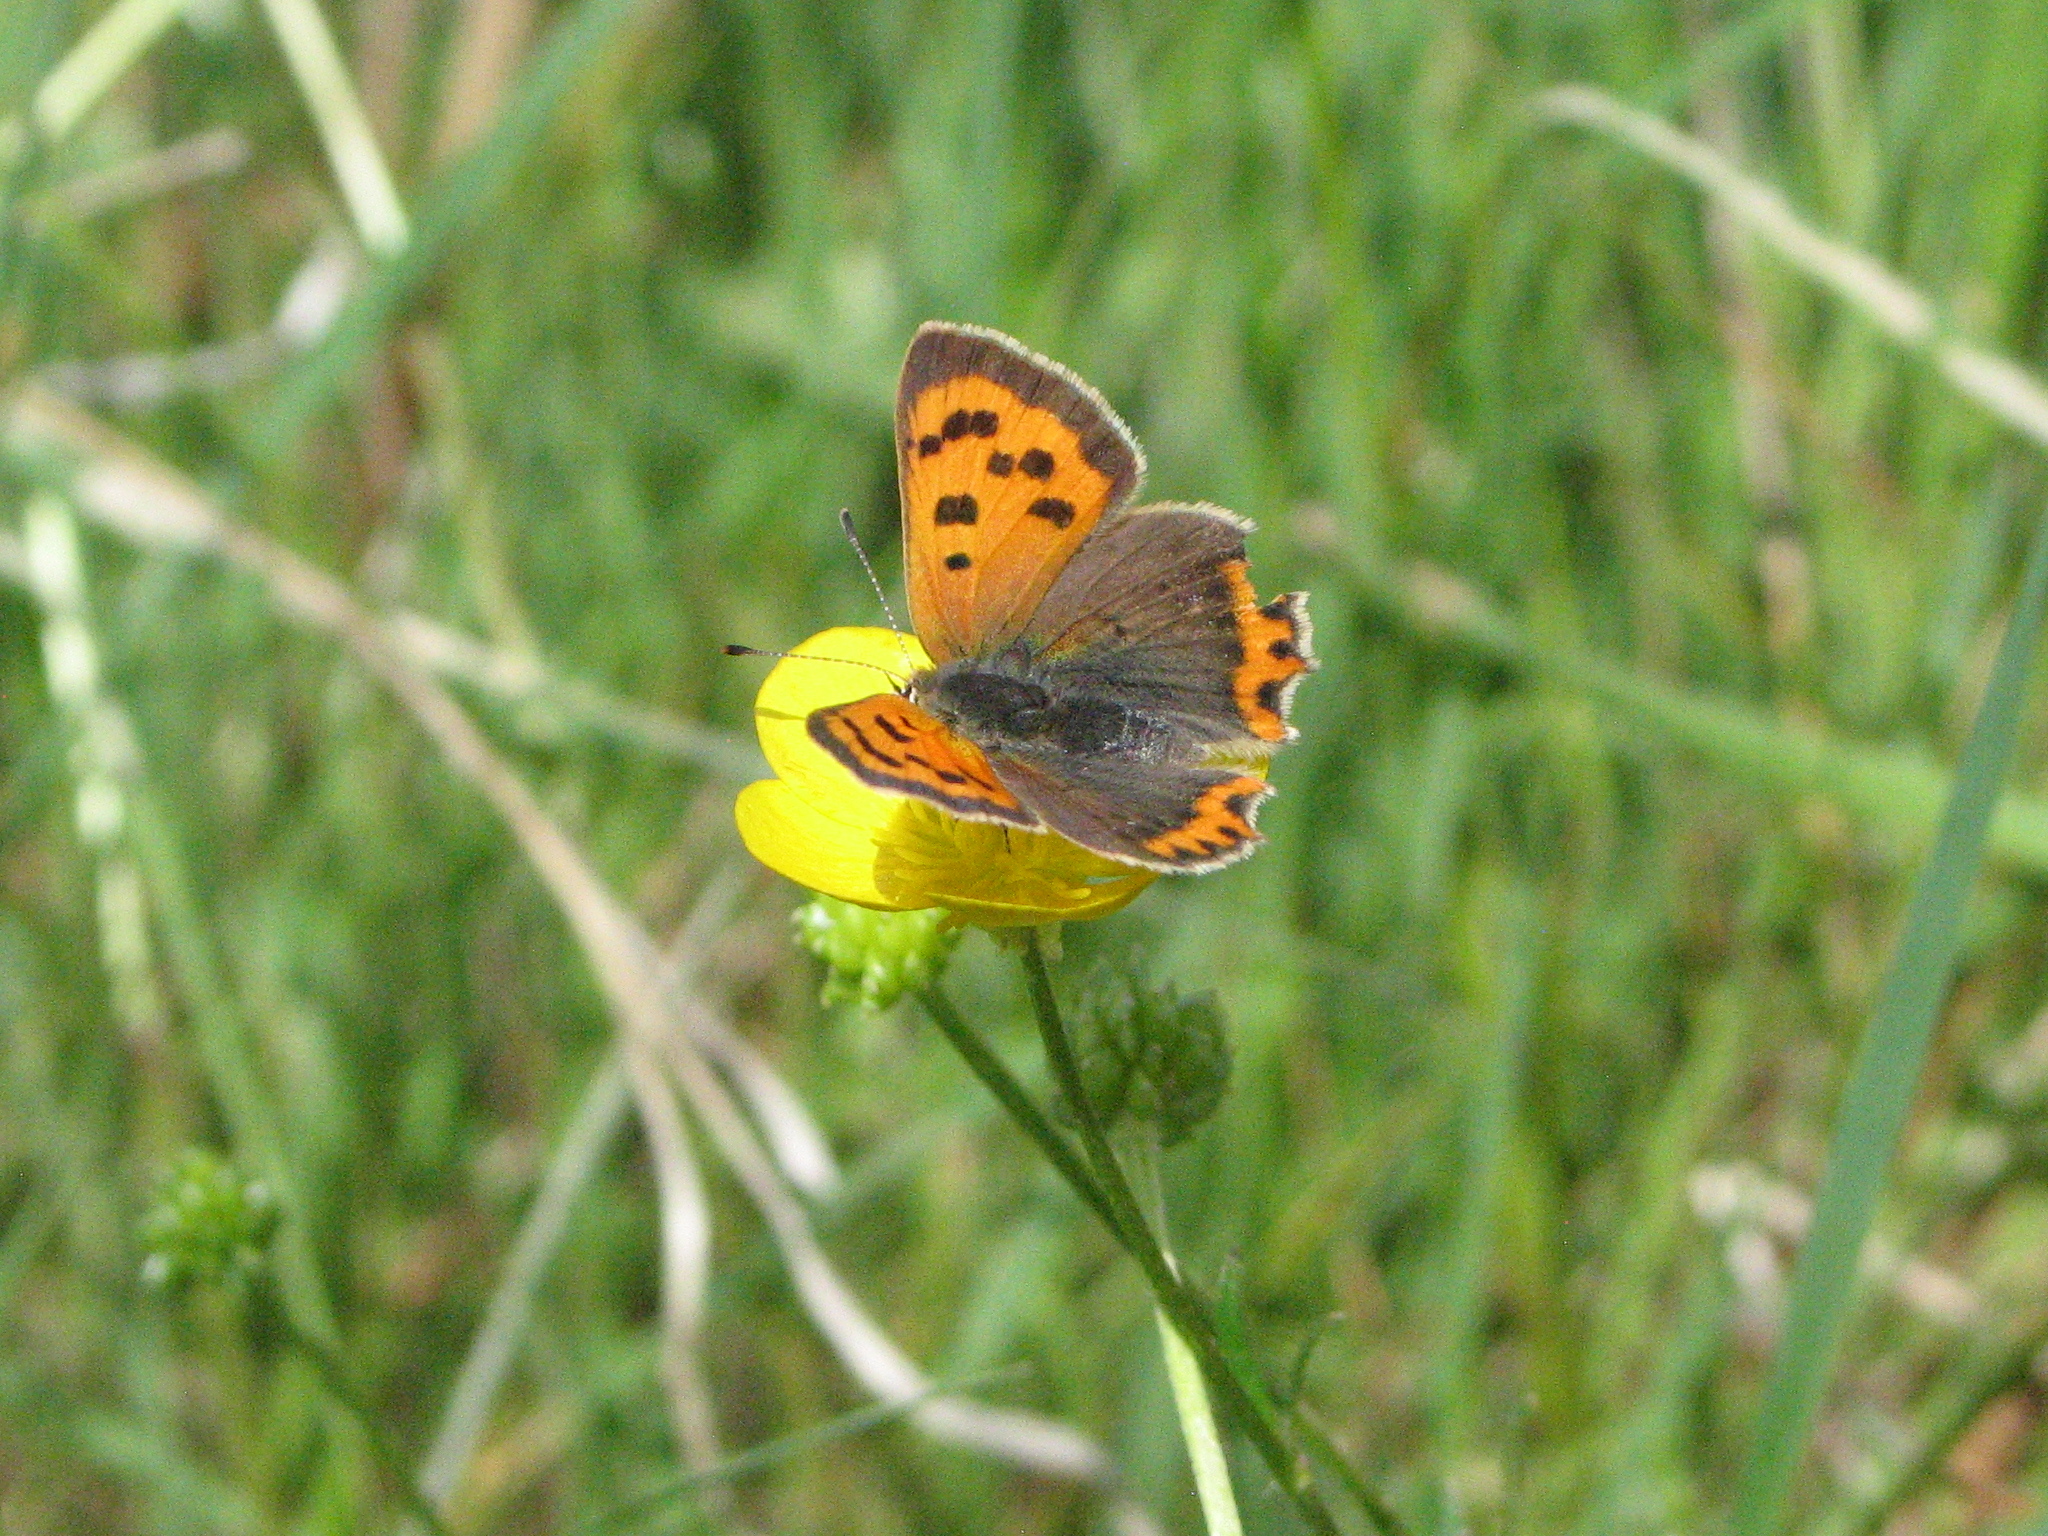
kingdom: Animalia
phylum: Arthropoda
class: Insecta
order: Lepidoptera
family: Lycaenidae
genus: Lycaena
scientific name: Lycaena phlaeas
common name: Small copper
